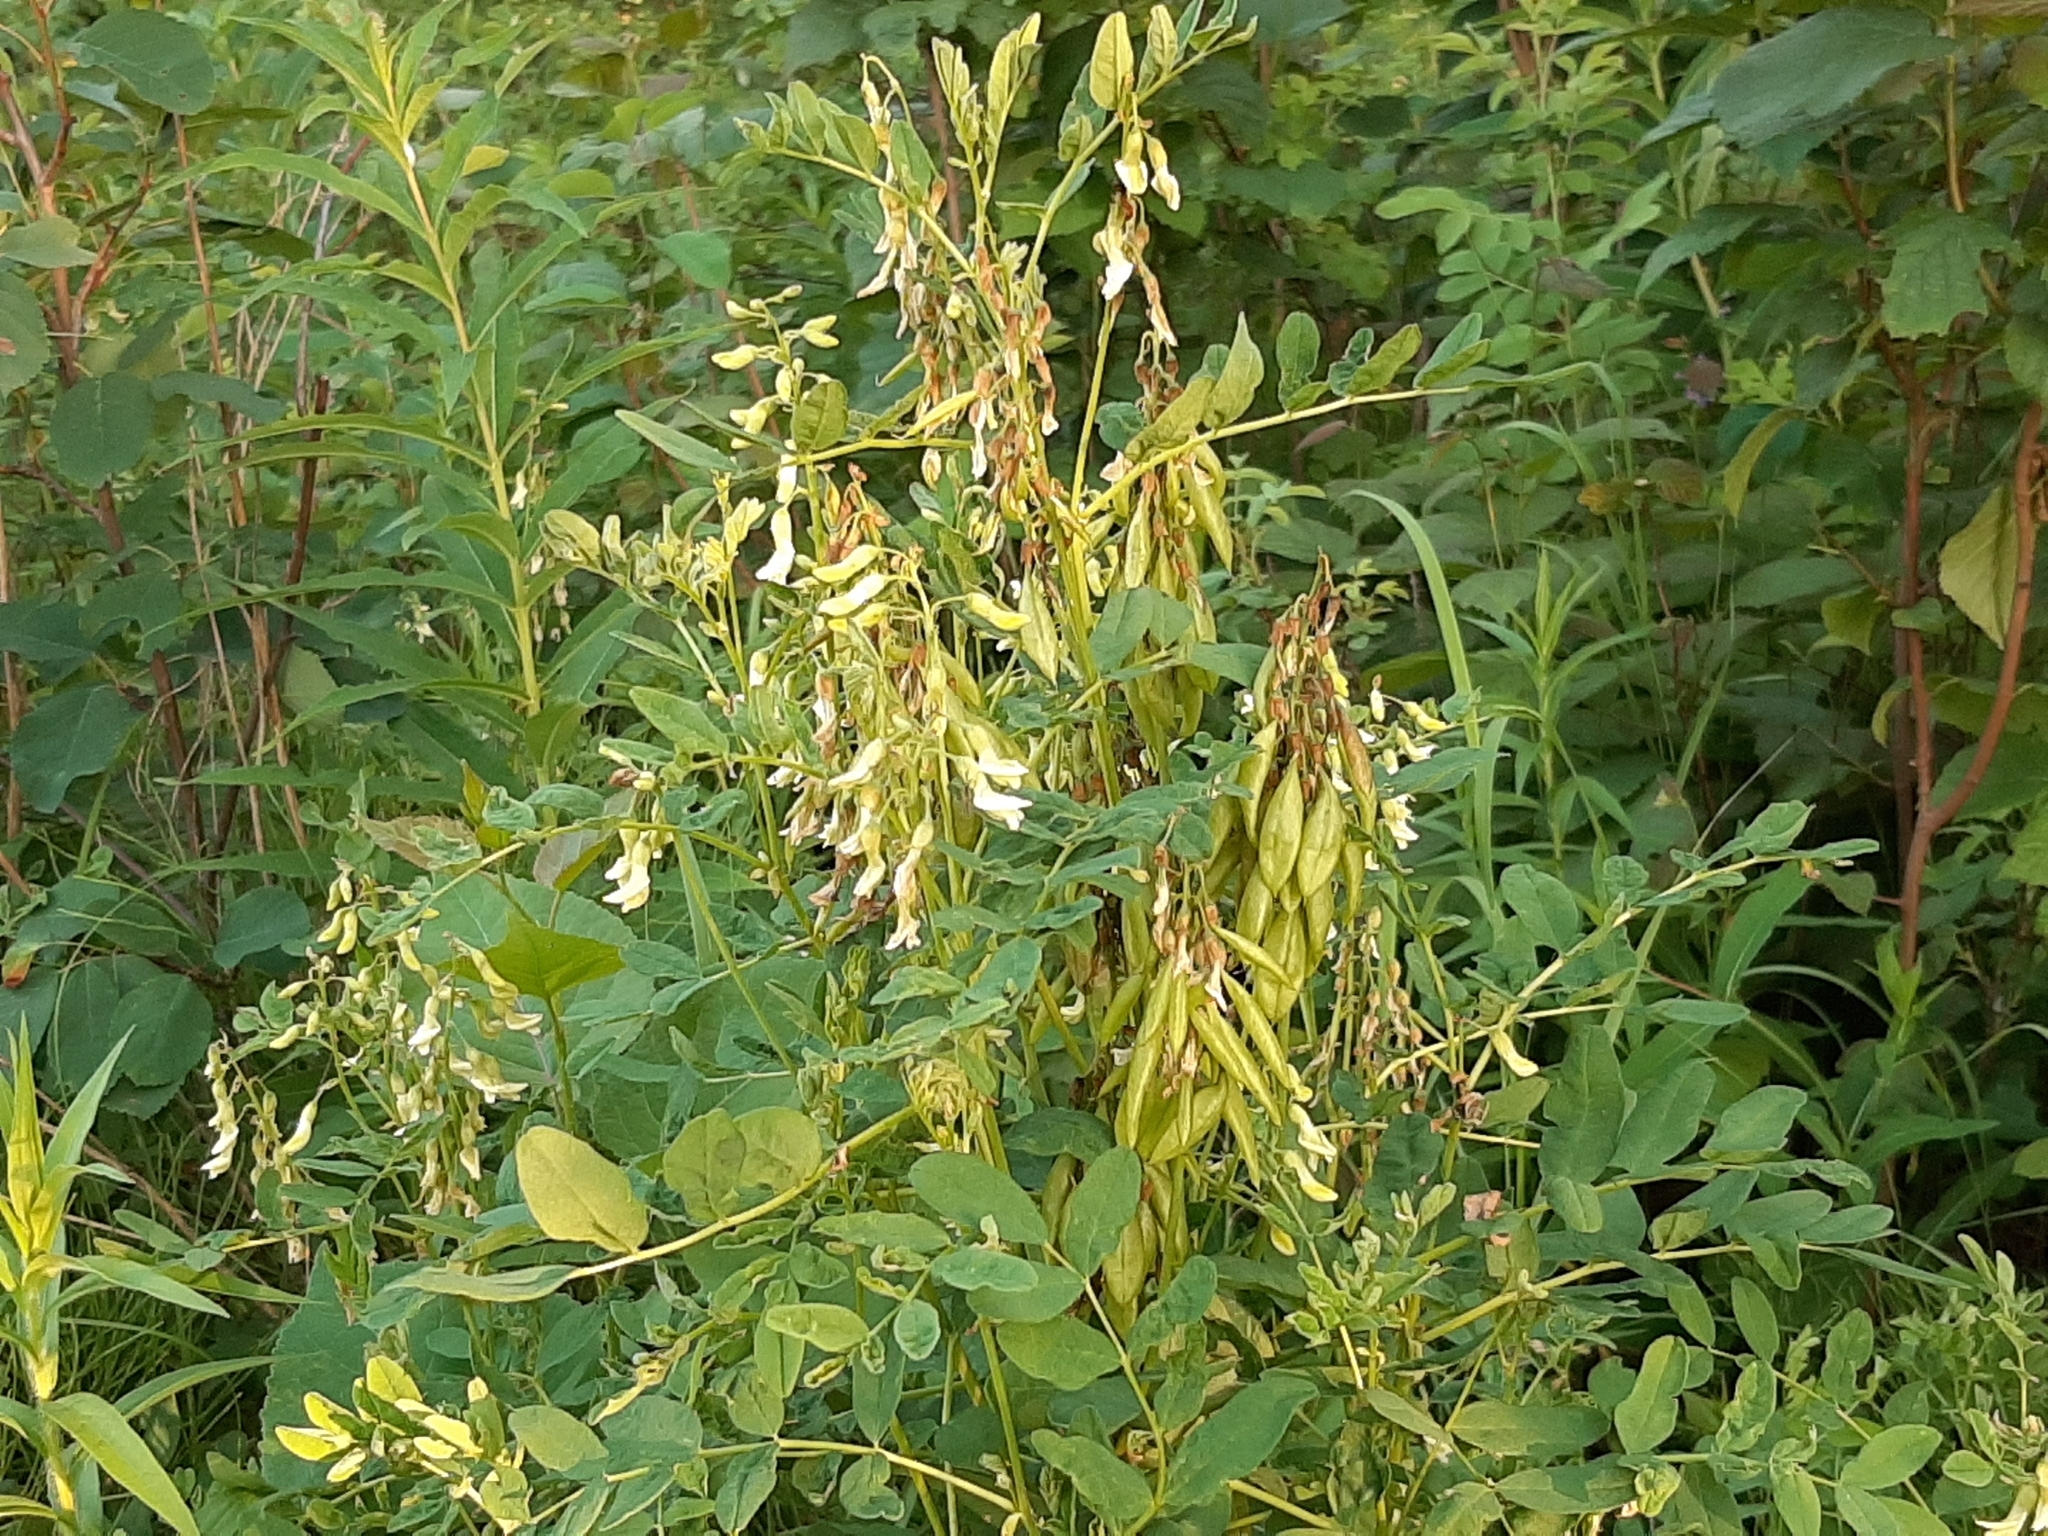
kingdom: Plantae
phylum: Tracheophyta
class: Magnoliopsida
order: Fabales
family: Fabaceae
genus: Astragalus
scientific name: Astragalus americanus
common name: American milk-vetch
